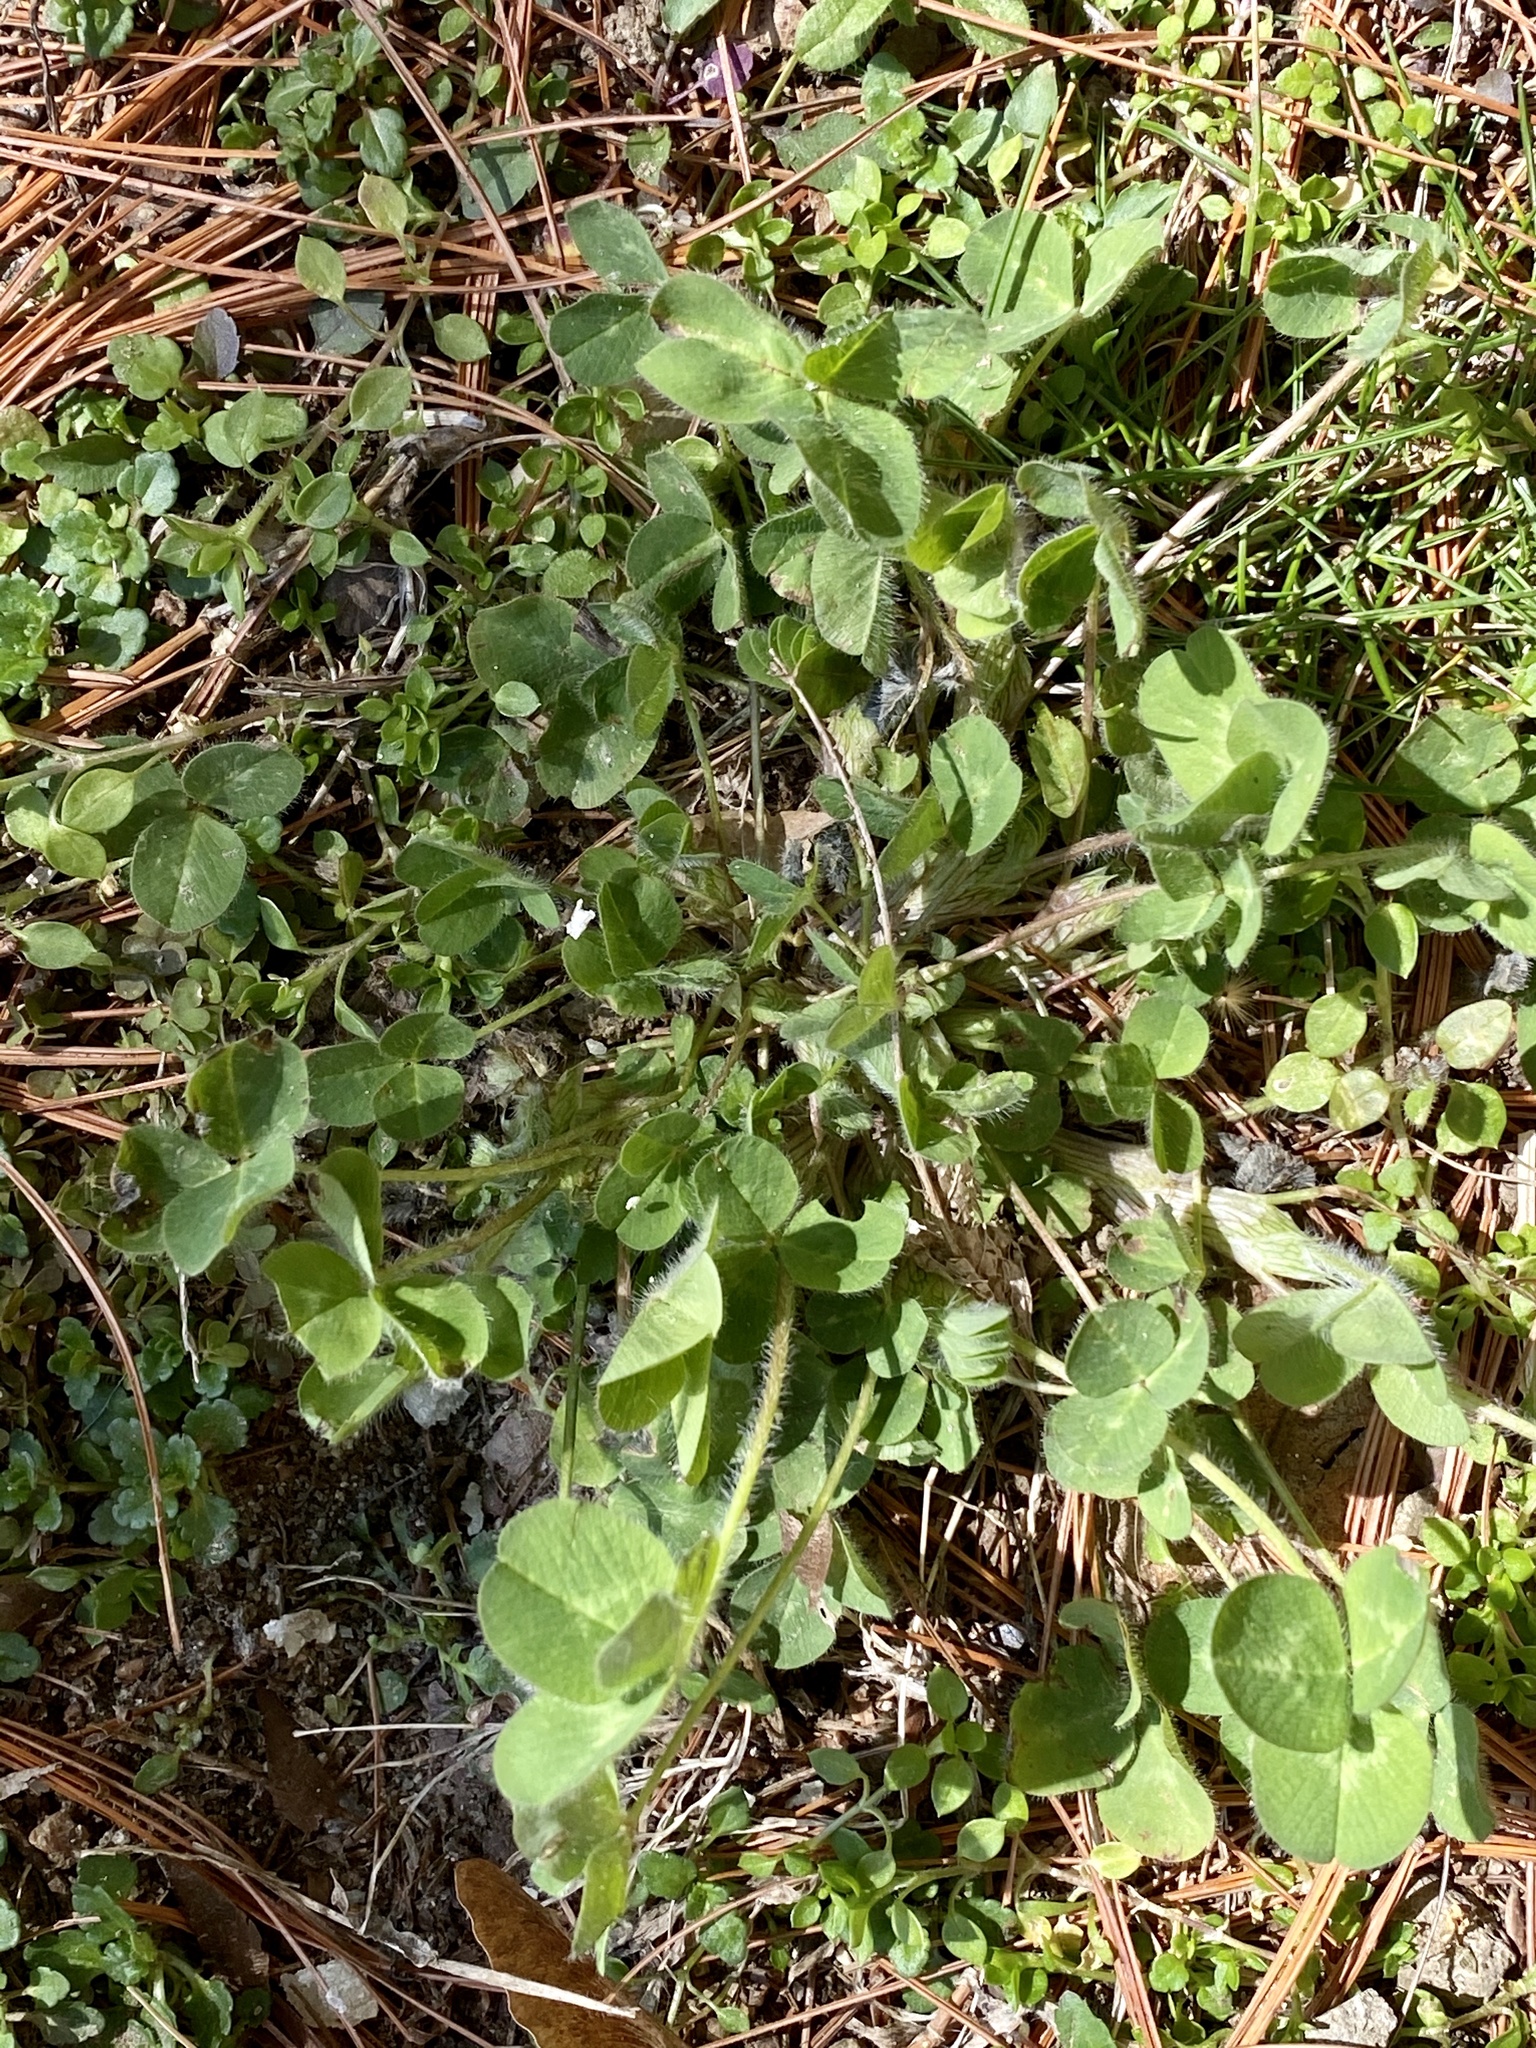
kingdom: Plantae
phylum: Tracheophyta
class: Magnoliopsida
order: Fabales
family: Fabaceae
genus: Trifolium
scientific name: Trifolium pratense
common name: Red clover
